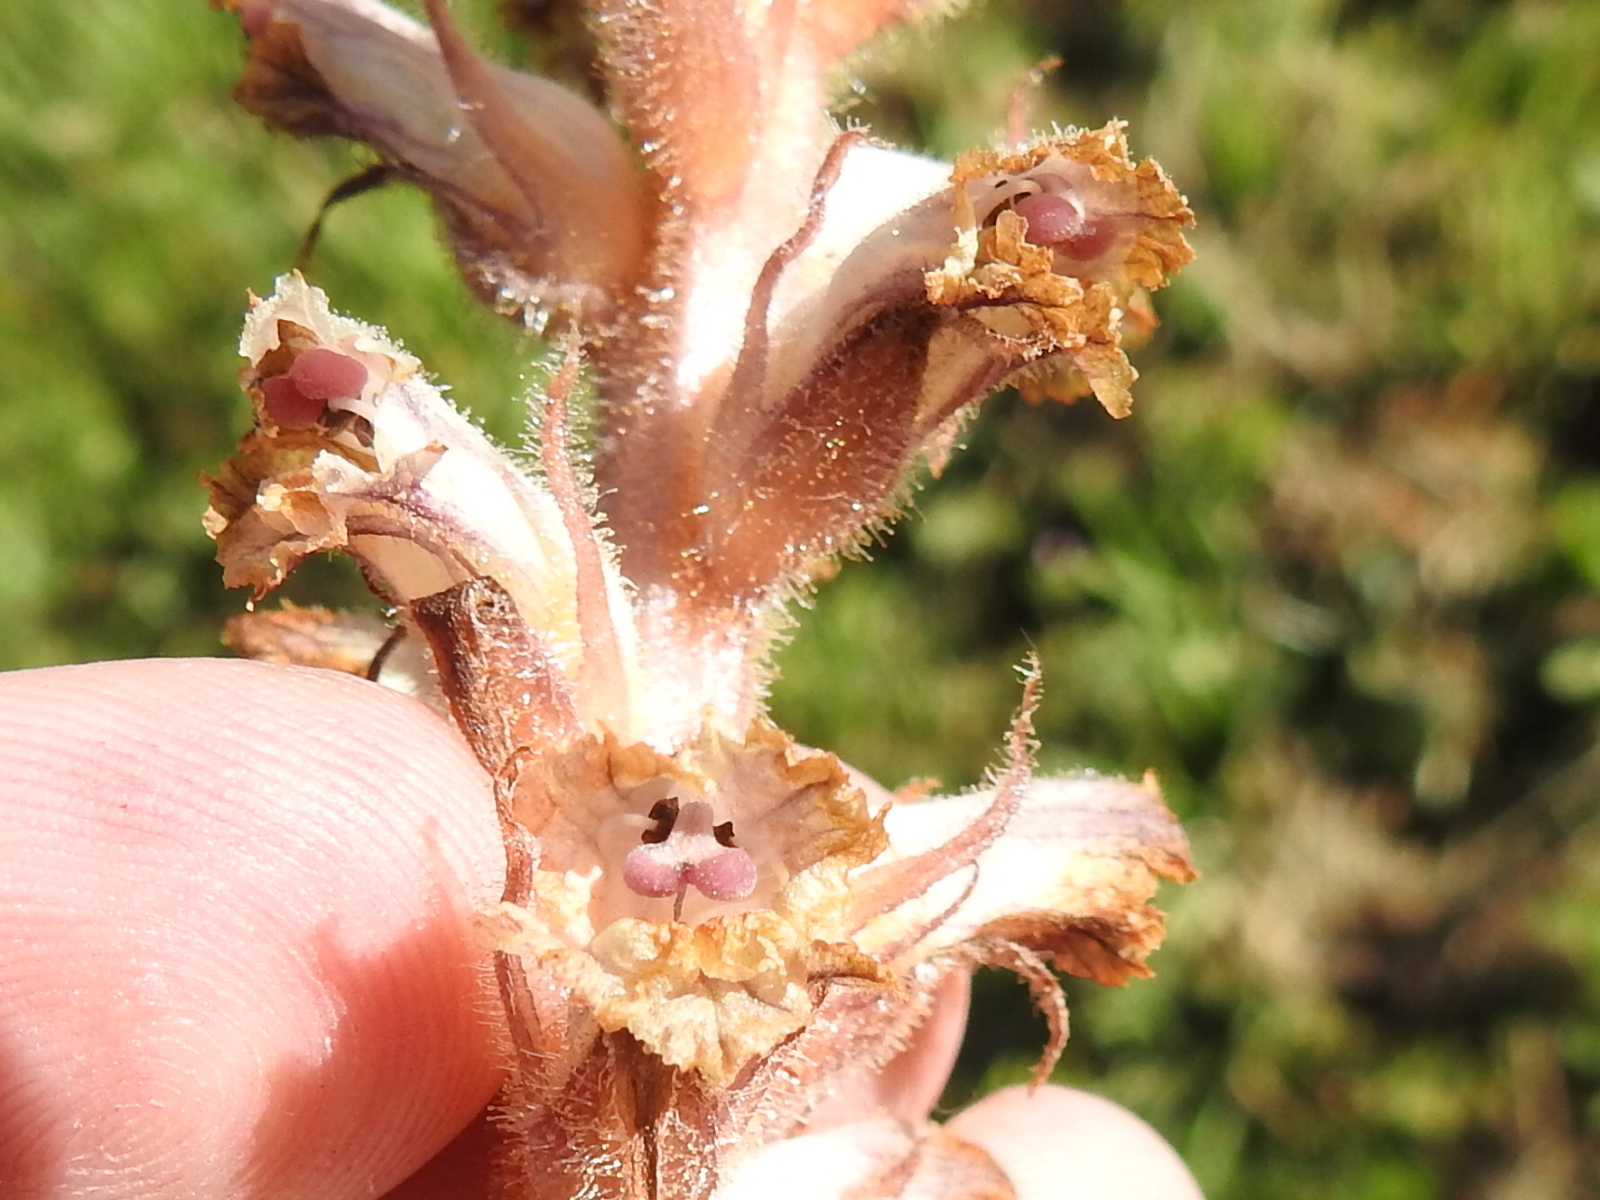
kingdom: Plantae
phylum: Tracheophyta
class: Magnoliopsida
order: Lamiales
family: Orobanchaceae
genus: Orobanche
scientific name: Orobanche minor
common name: Common broomrape
